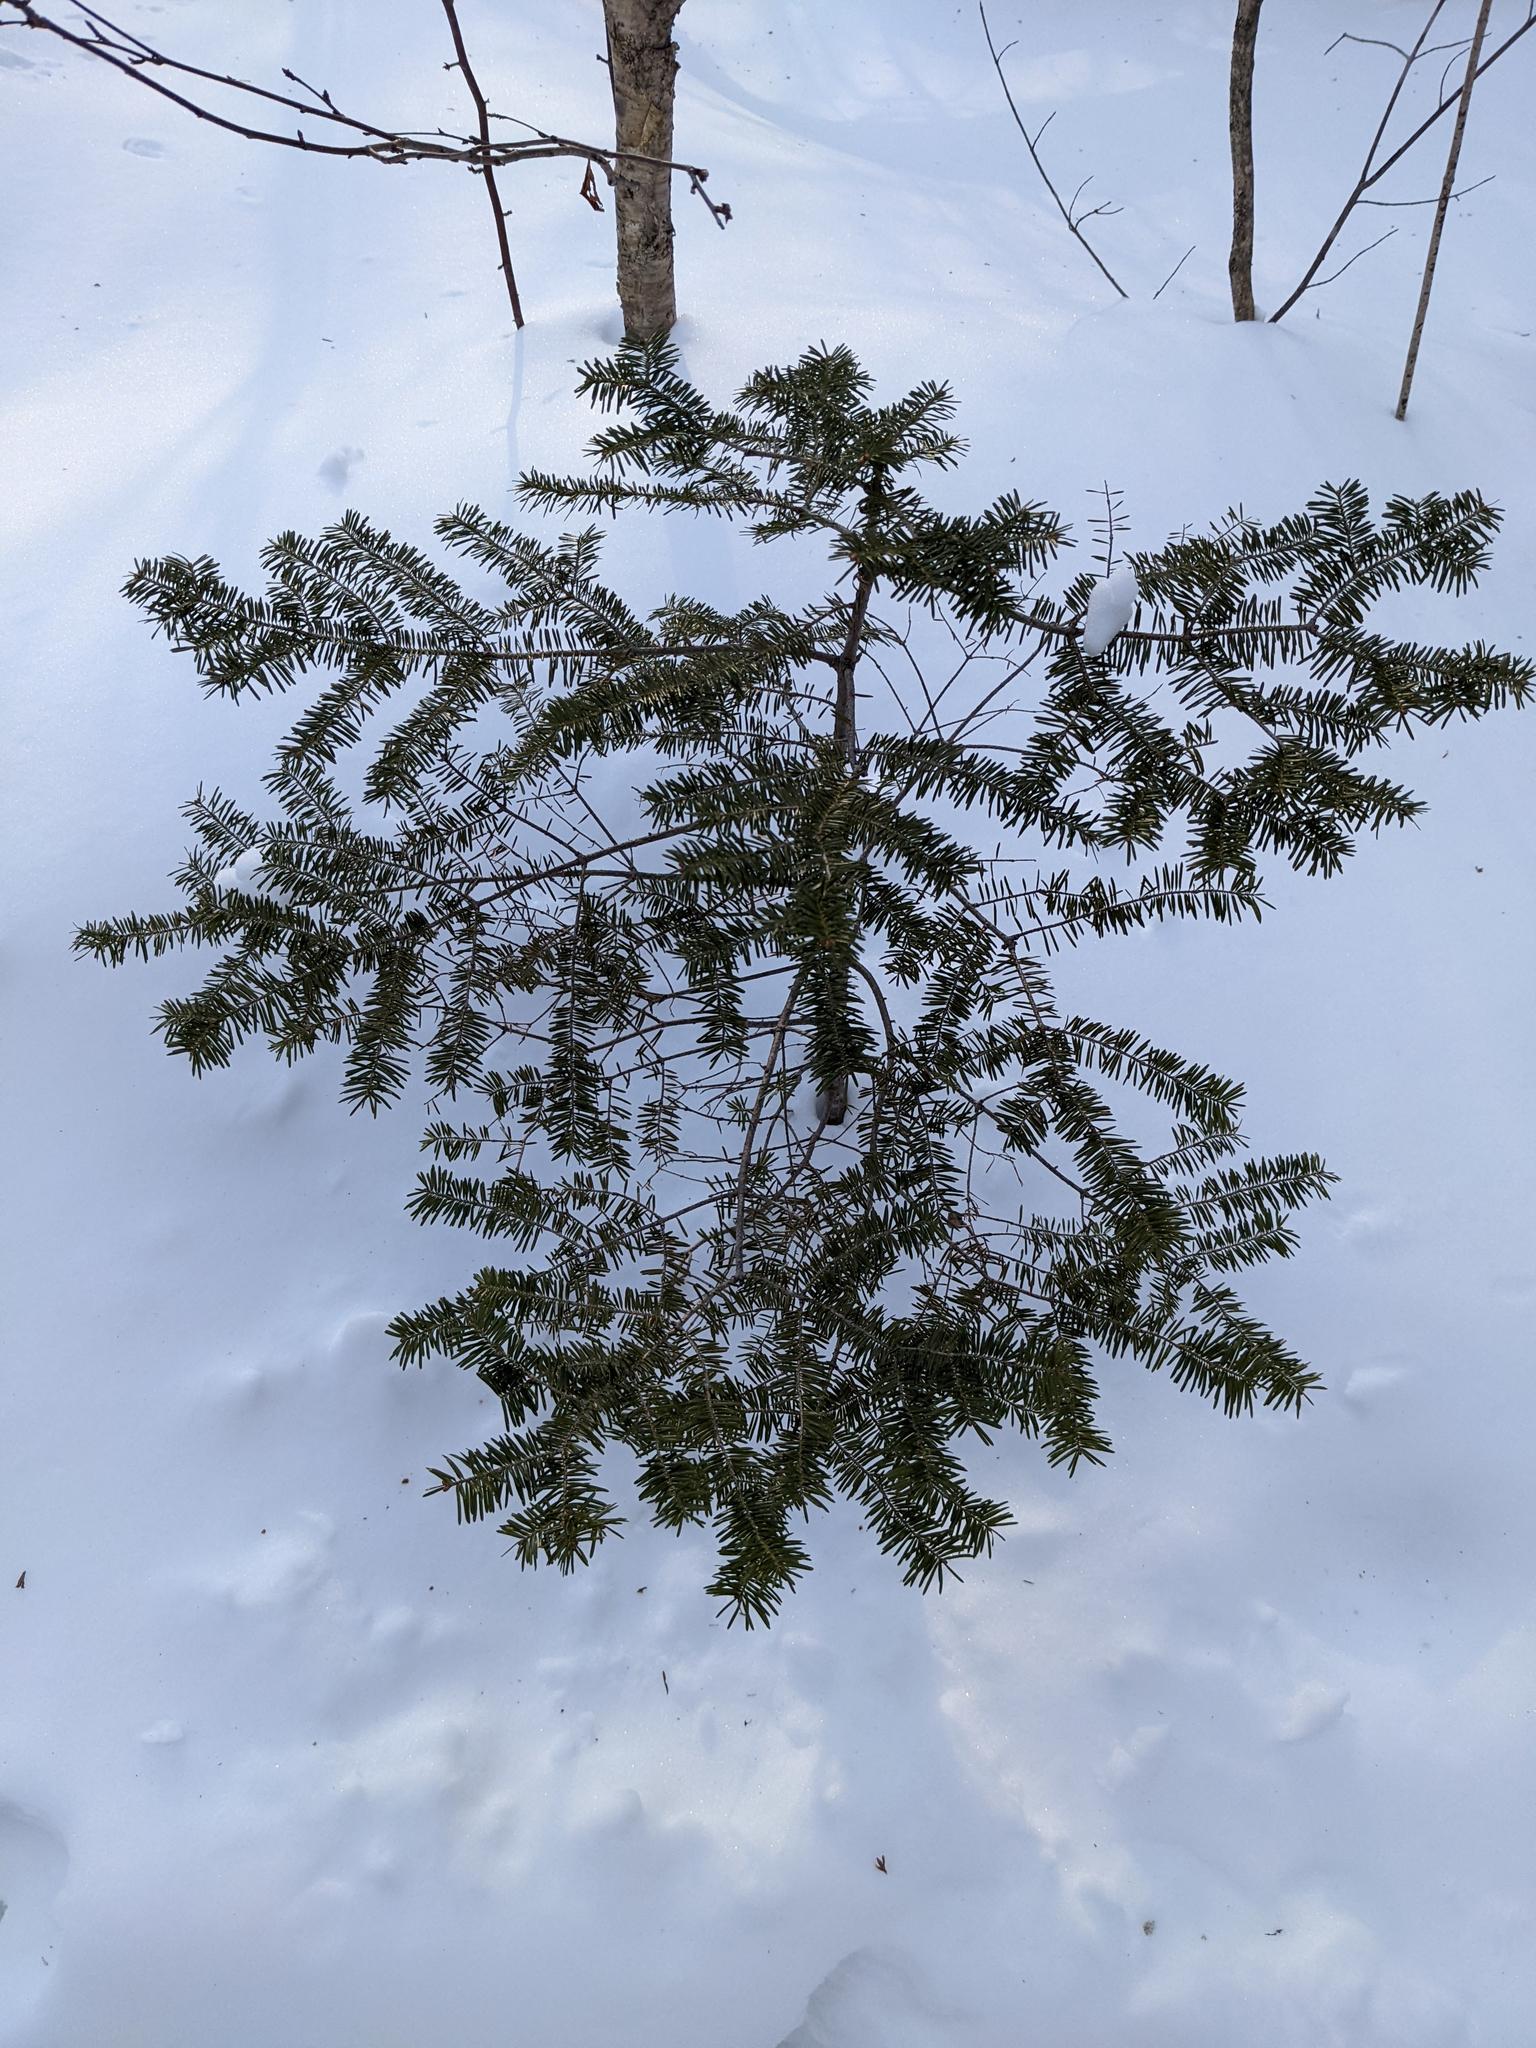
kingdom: Plantae
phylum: Tracheophyta
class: Pinopsida
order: Pinales
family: Pinaceae
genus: Abies
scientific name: Abies balsamea
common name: Balsam fir
